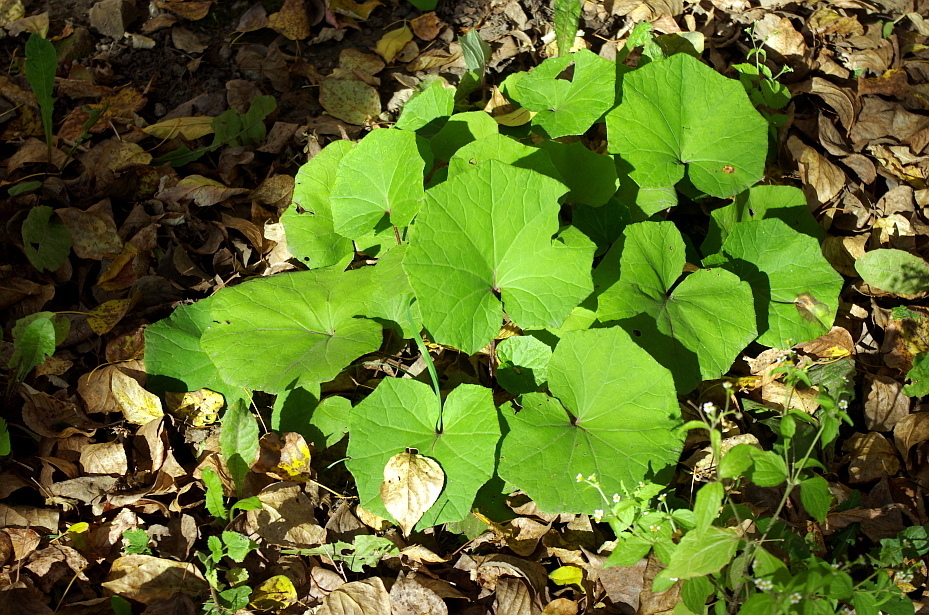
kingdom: Plantae
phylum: Tracheophyta
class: Magnoliopsida
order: Asterales
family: Asteraceae
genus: Tussilago
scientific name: Tussilago farfara
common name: Coltsfoot
